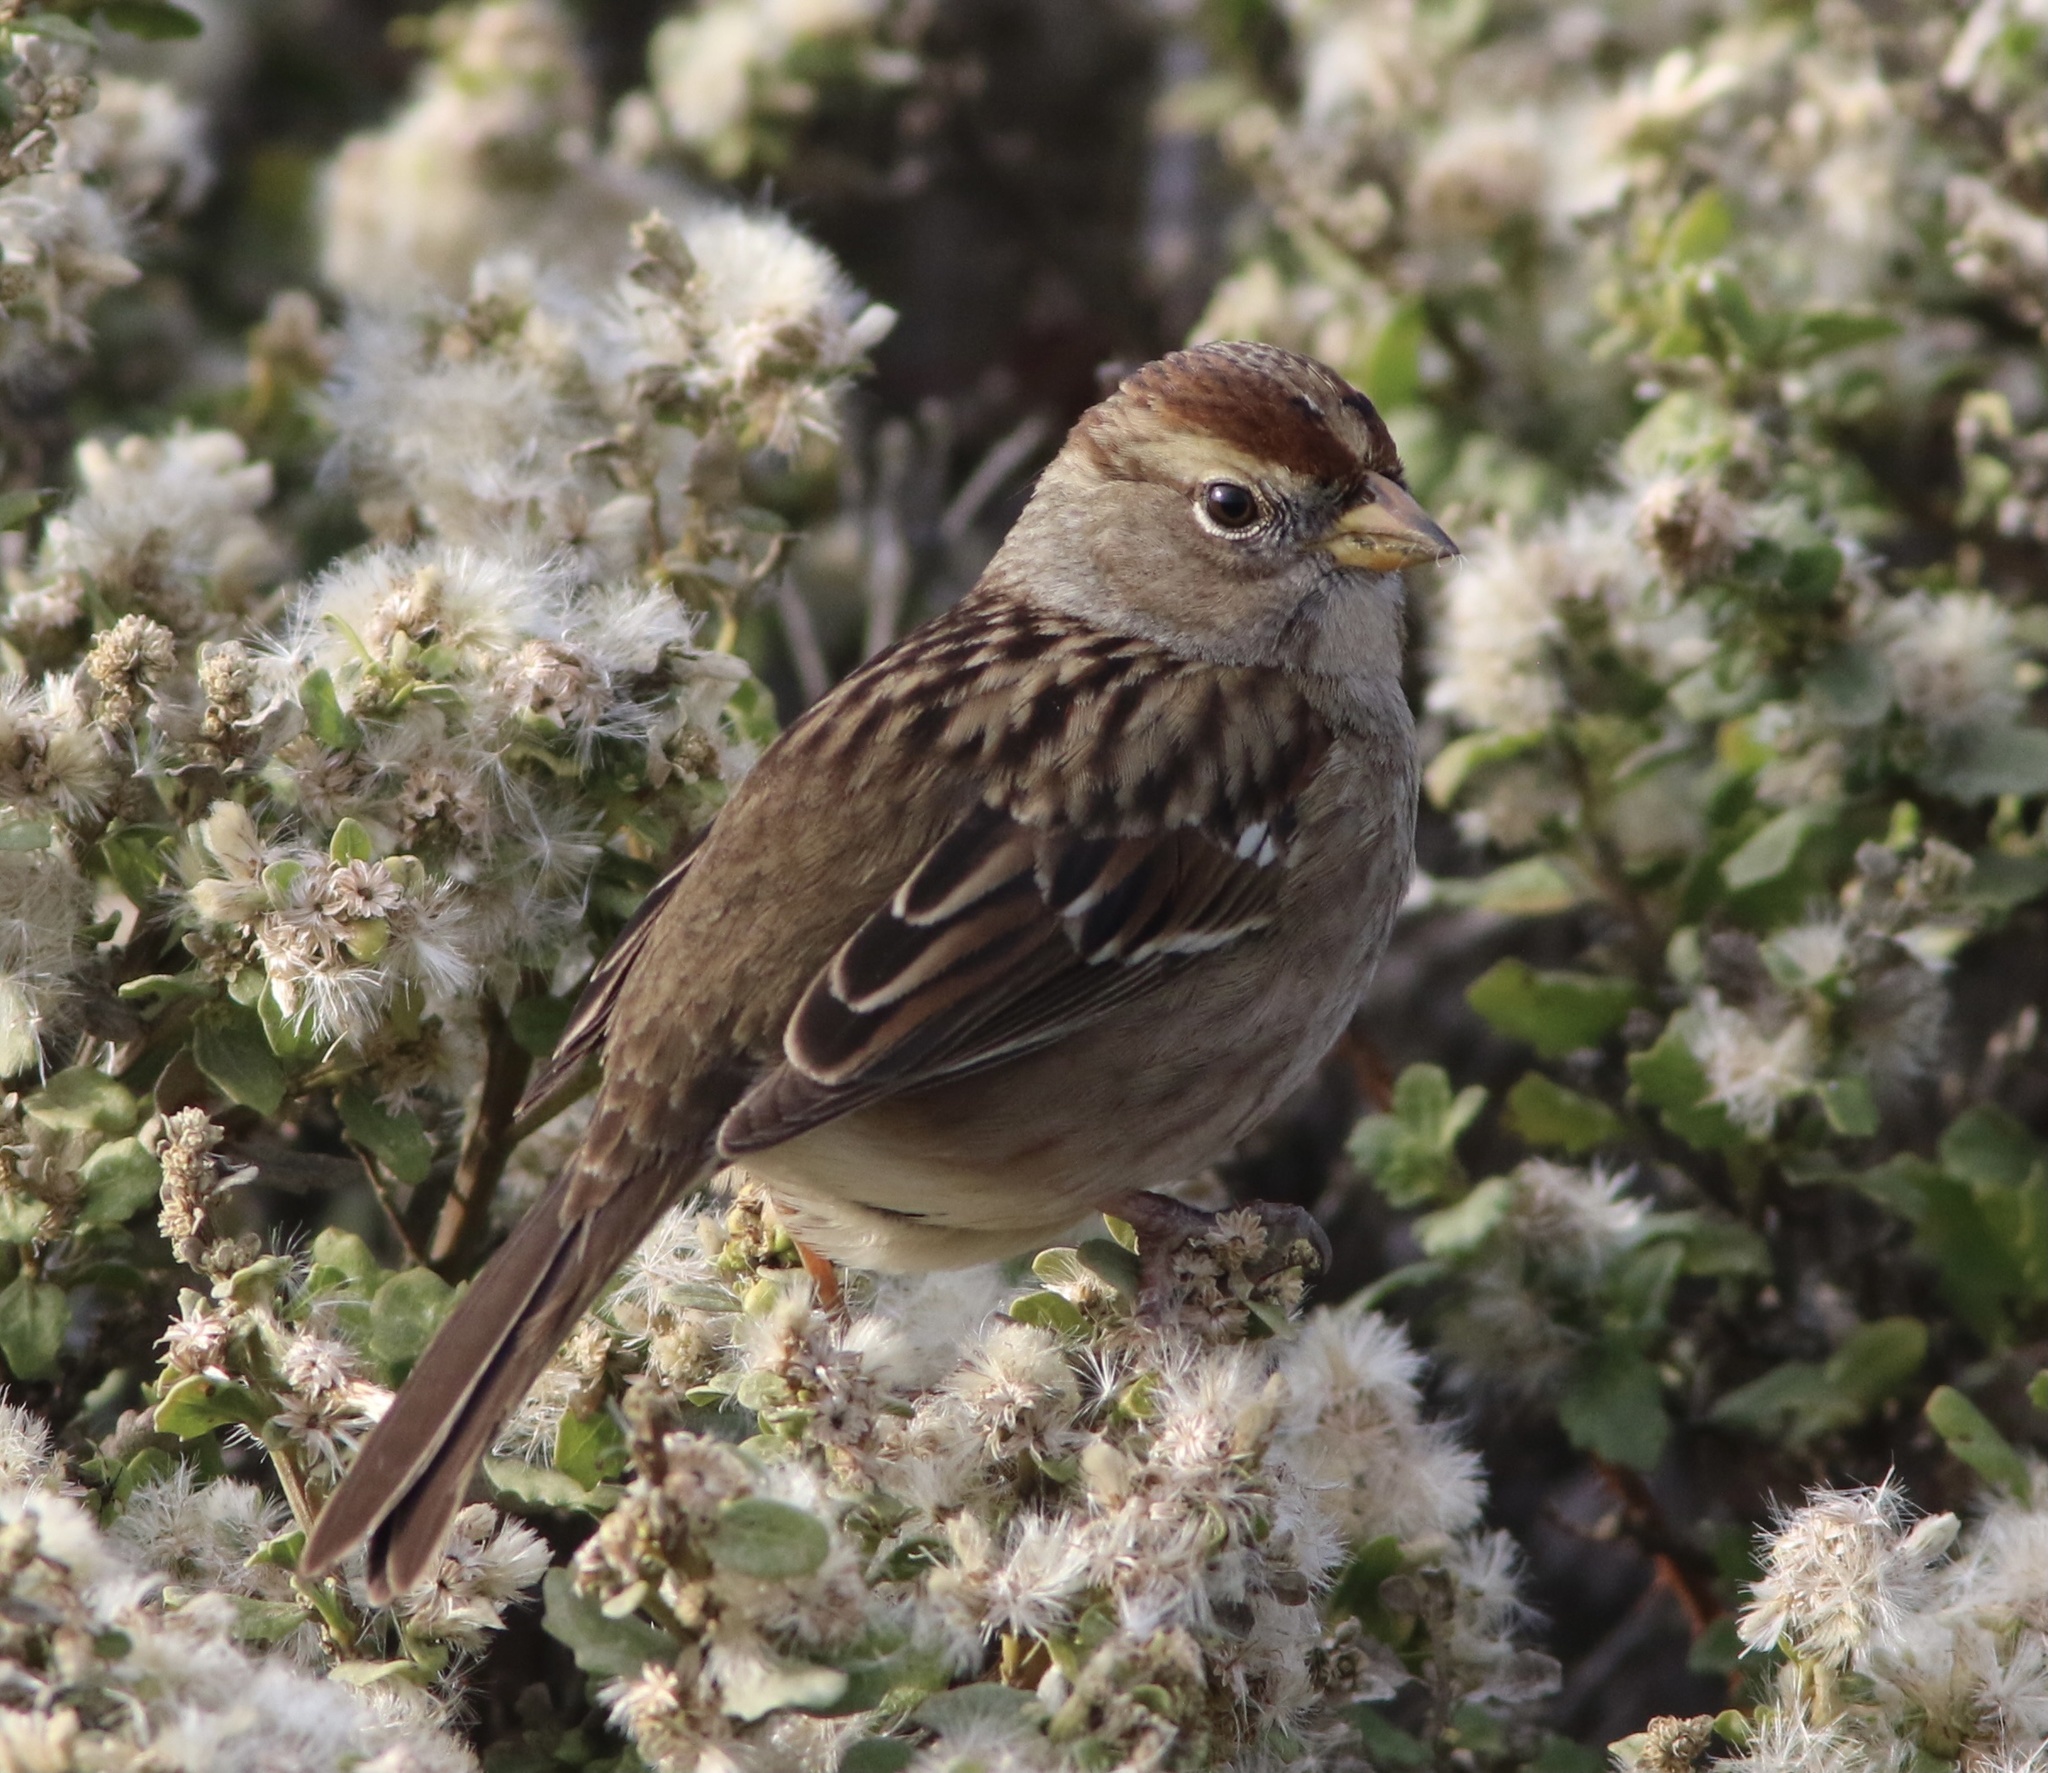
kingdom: Animalia
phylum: Chordata
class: Aves
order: Passeriformes
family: Passerellidae
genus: Zonotrichia
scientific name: Zonotrichia leucophrys
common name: White-crowned sparrow
